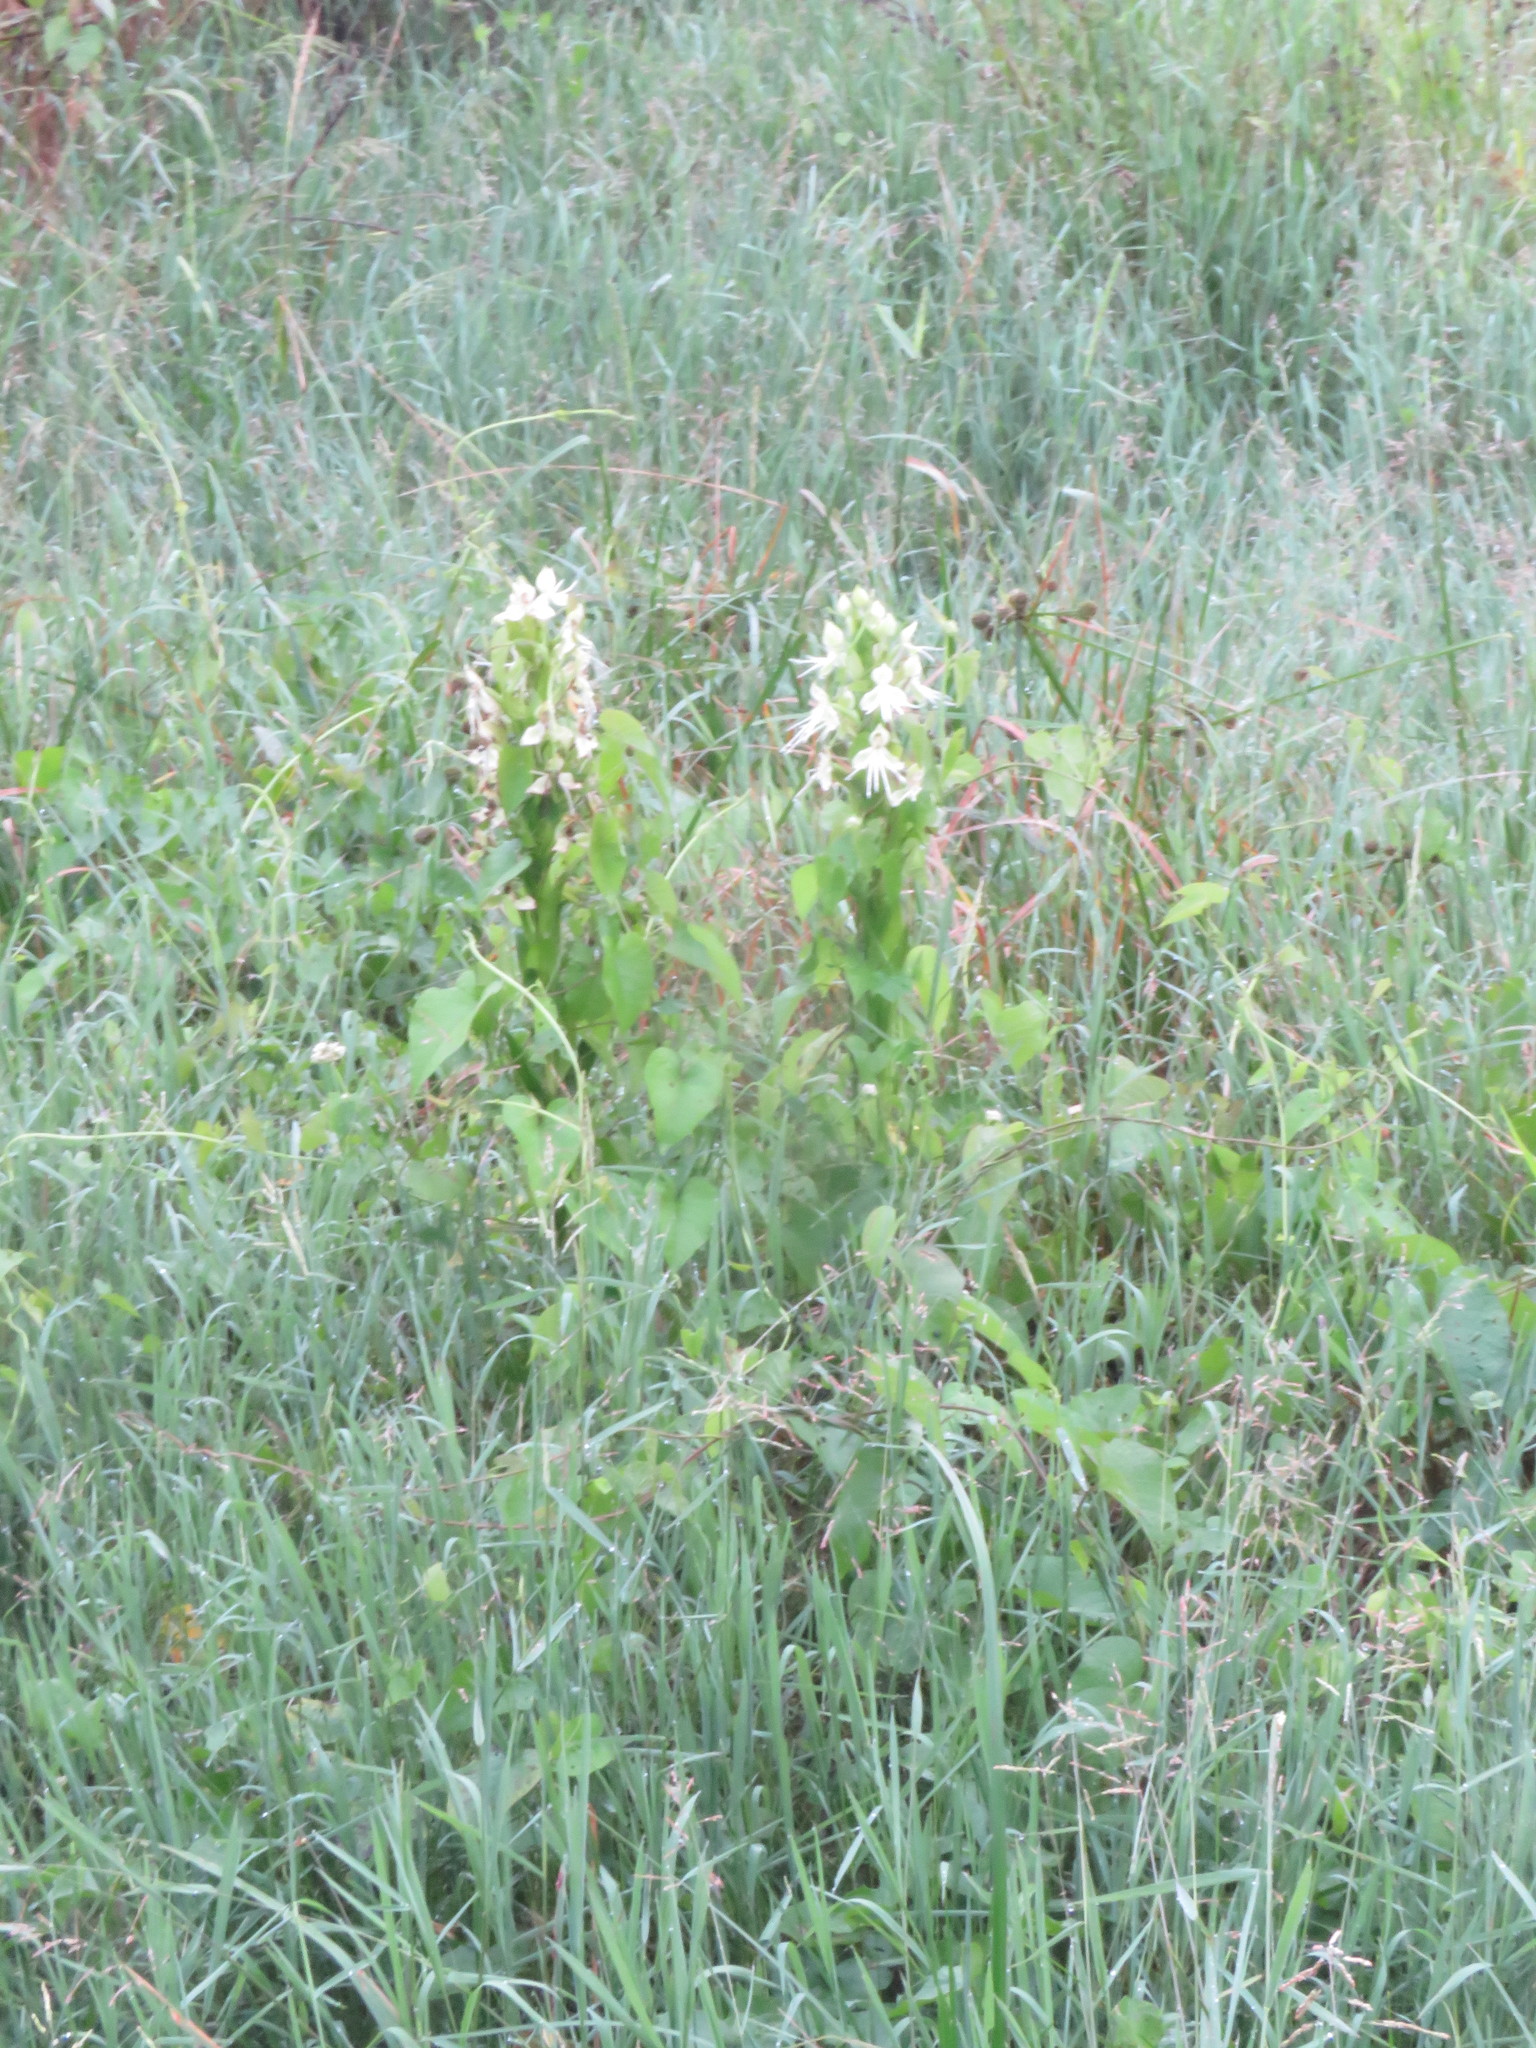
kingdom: Plantae
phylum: Tracheophyta
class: Liliopsida
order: Asparagales
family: Orchidaceae
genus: Habenaria
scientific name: Habenaria melvillei
